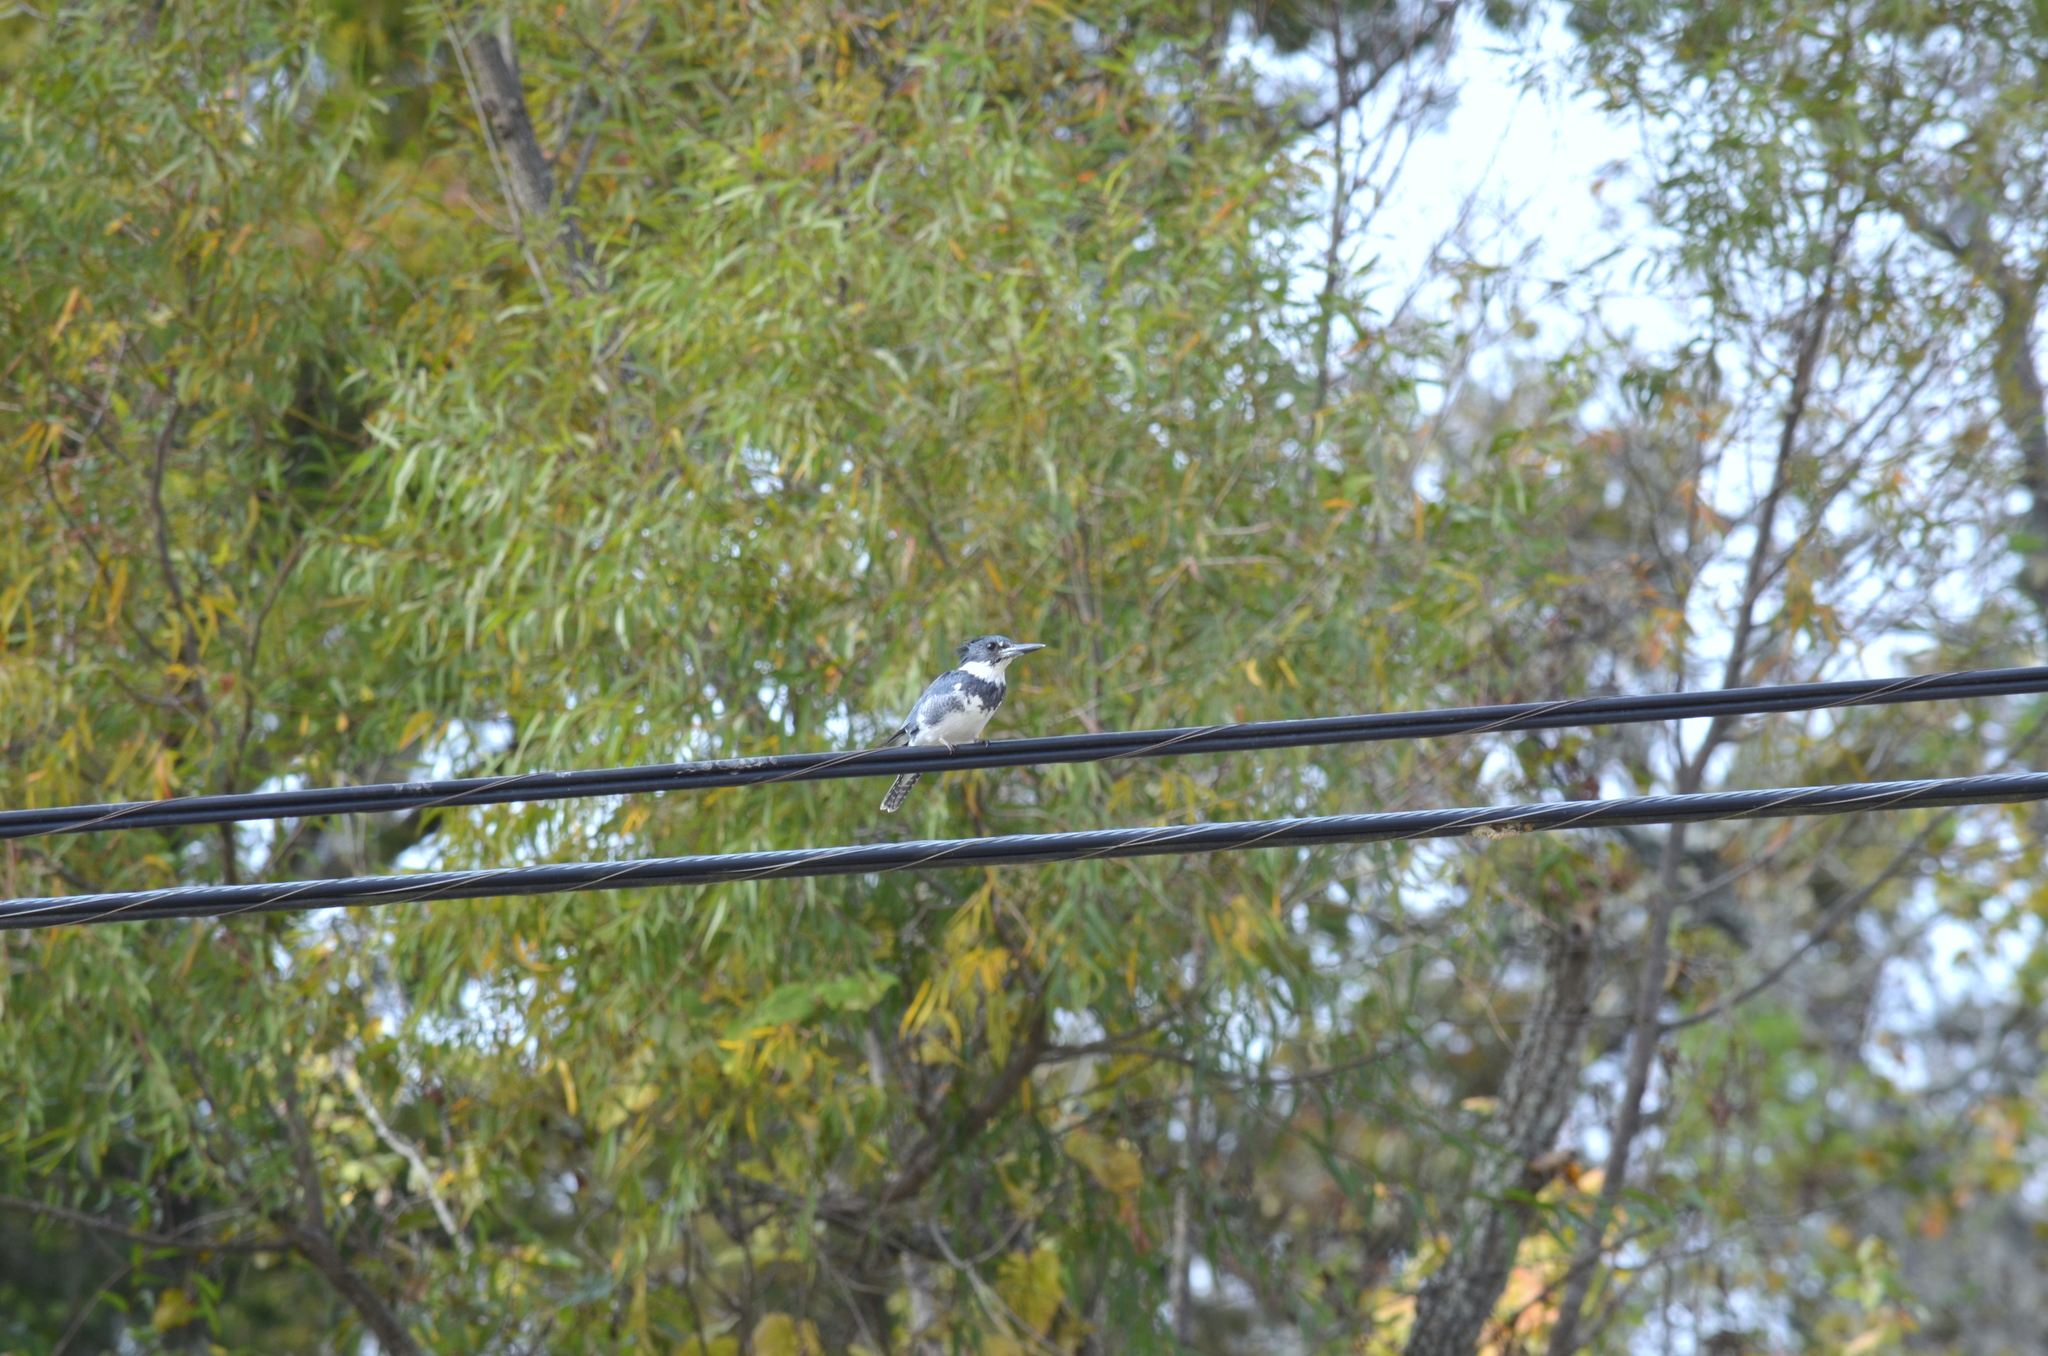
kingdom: Animalia
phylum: Chordata
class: Aves
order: Coraciiformes
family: Alcedinidae
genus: Megaceryle
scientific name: Megaceryle alcyon
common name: Belted kingfisher
